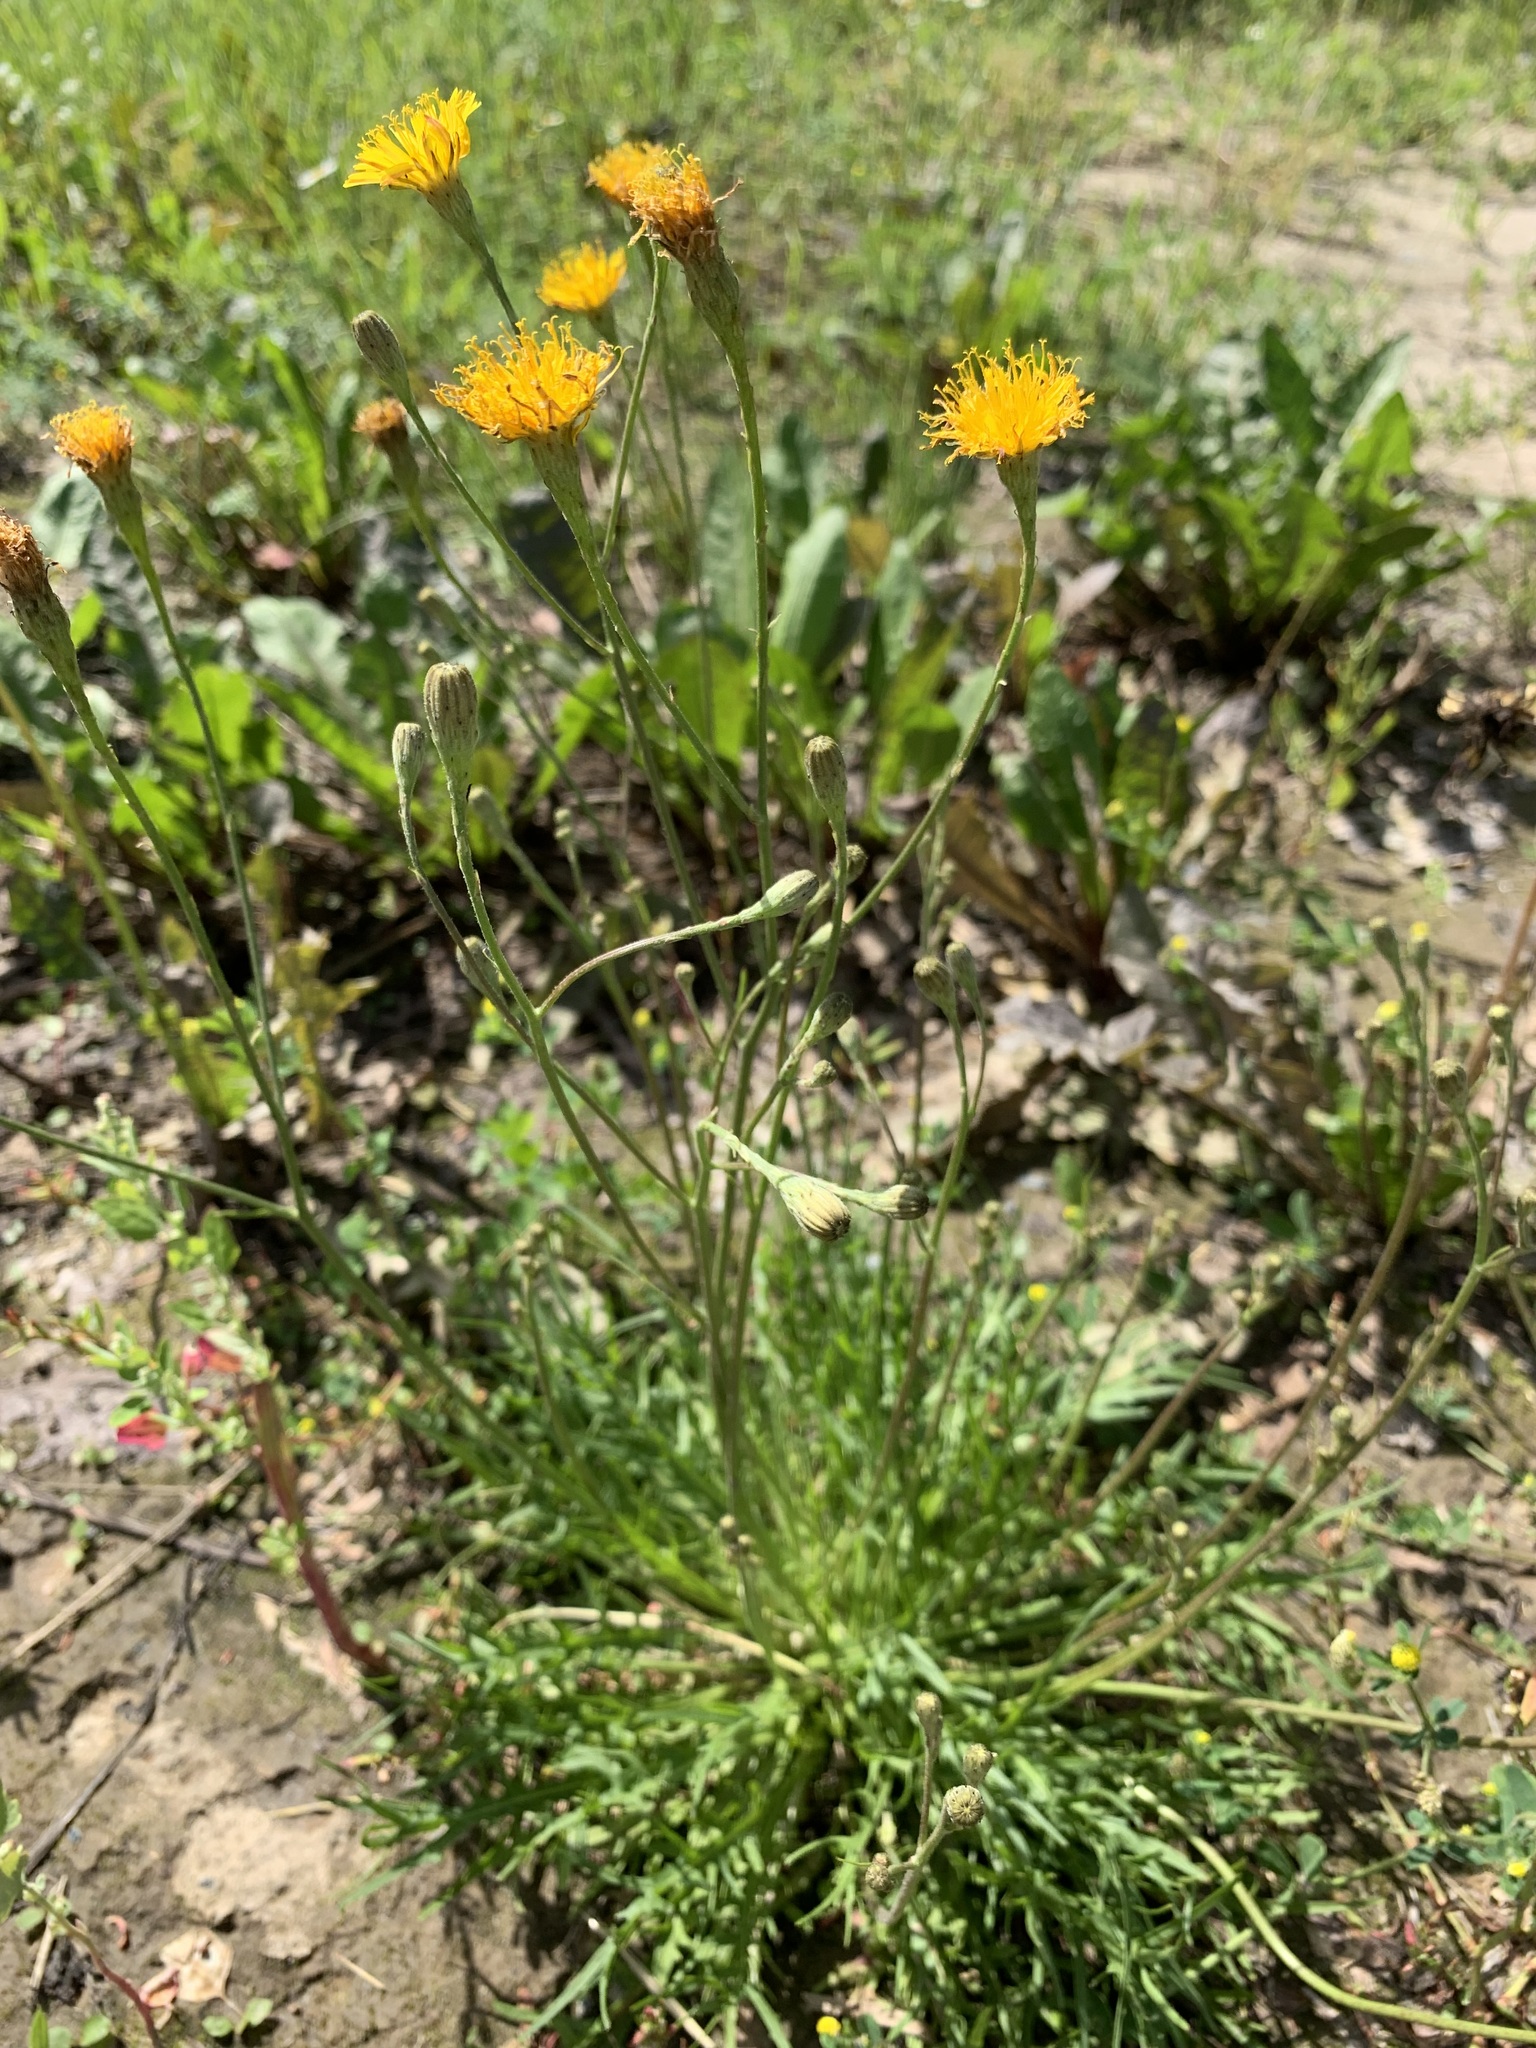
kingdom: Plantae
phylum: Tracheophyta
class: Magnoliopsida
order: Asterales
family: Asteraceae
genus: Scorzoneroides
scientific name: Scorzoneroides autumnalis
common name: Autumn hawkbit
